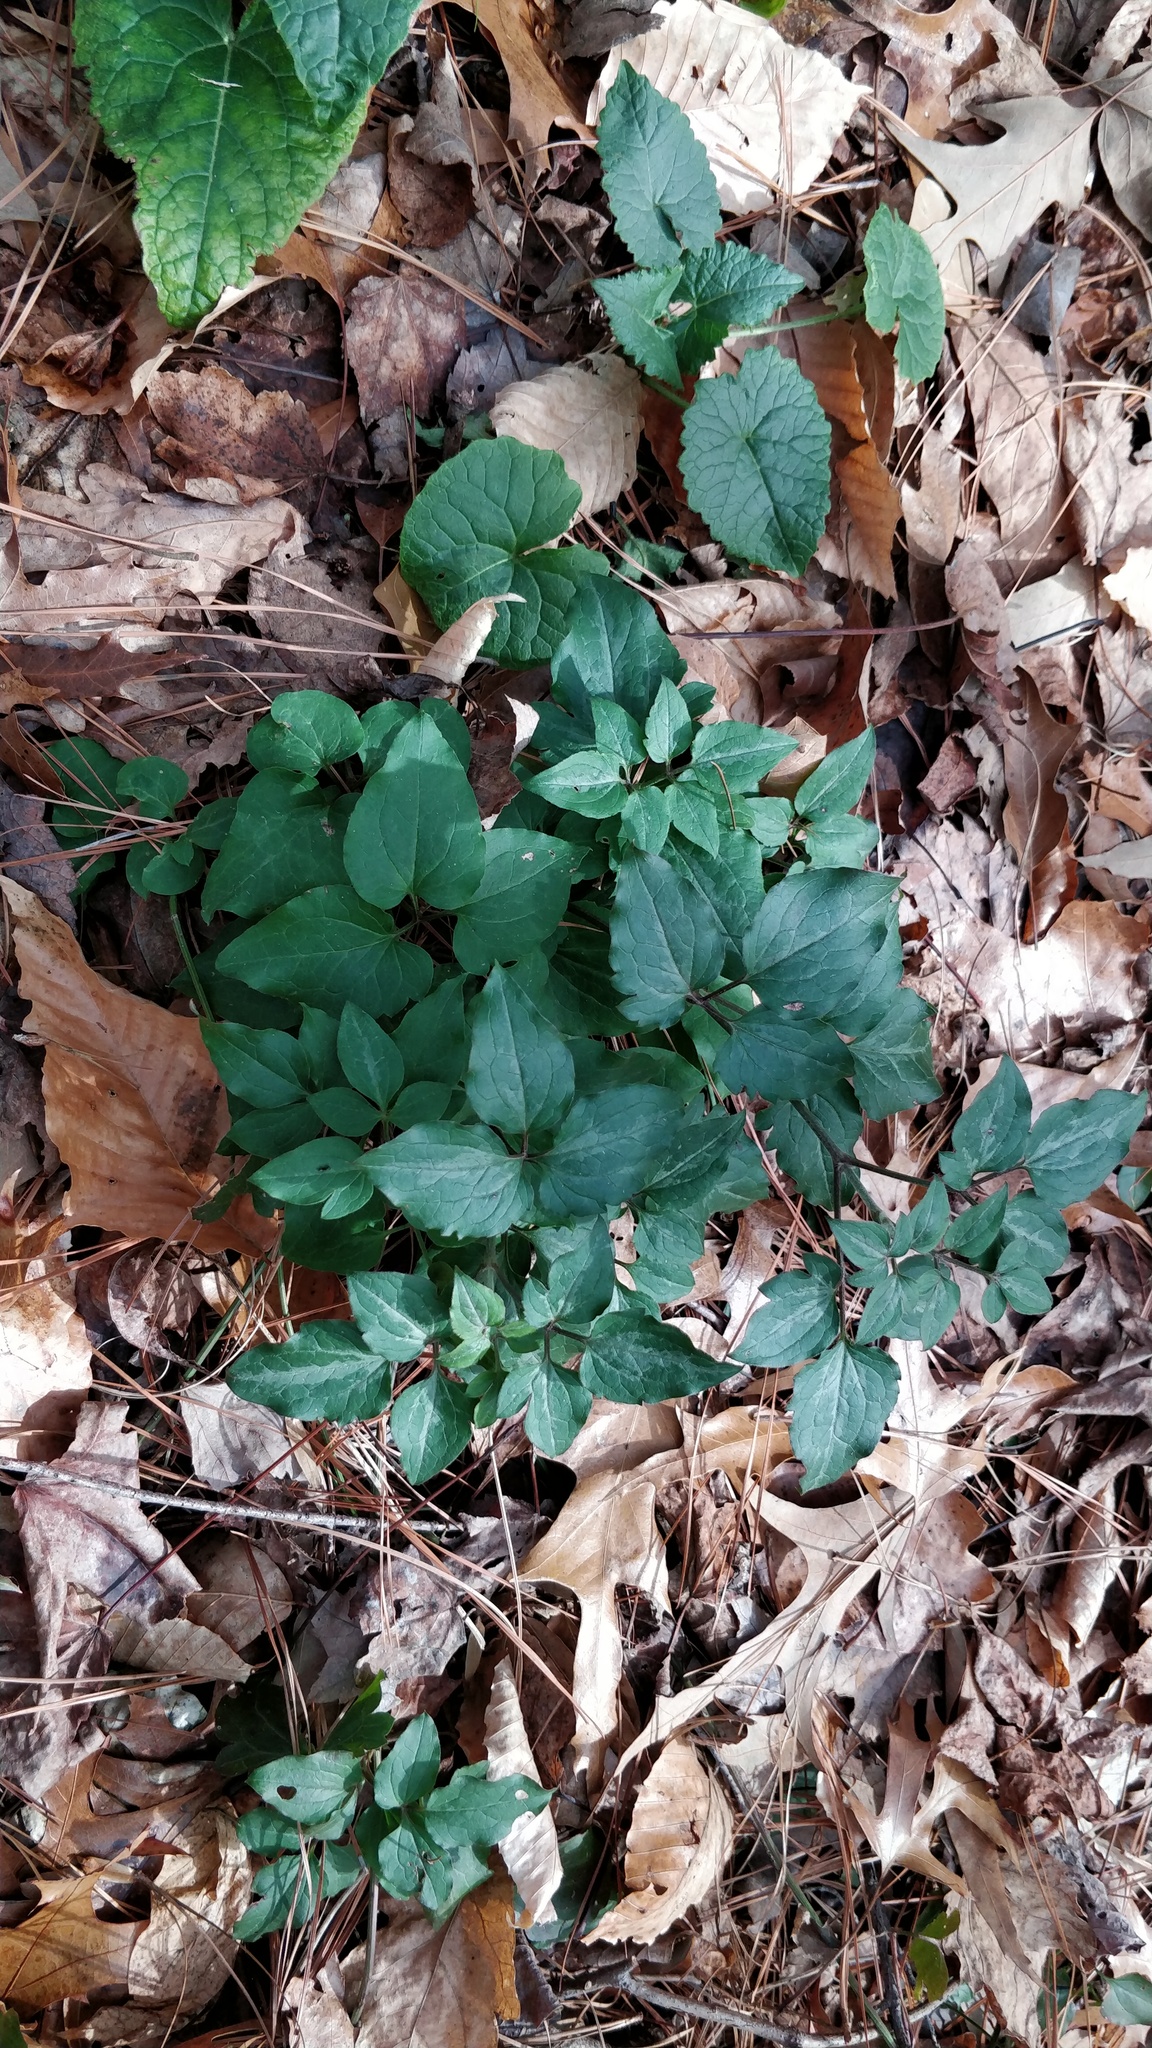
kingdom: Plantae
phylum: Tracheophyta
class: Magnoliopsida
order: Ranunculales
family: Ranunculaceae
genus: Clematis
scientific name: Clematis terniflora
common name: Sweet autumn clematis
